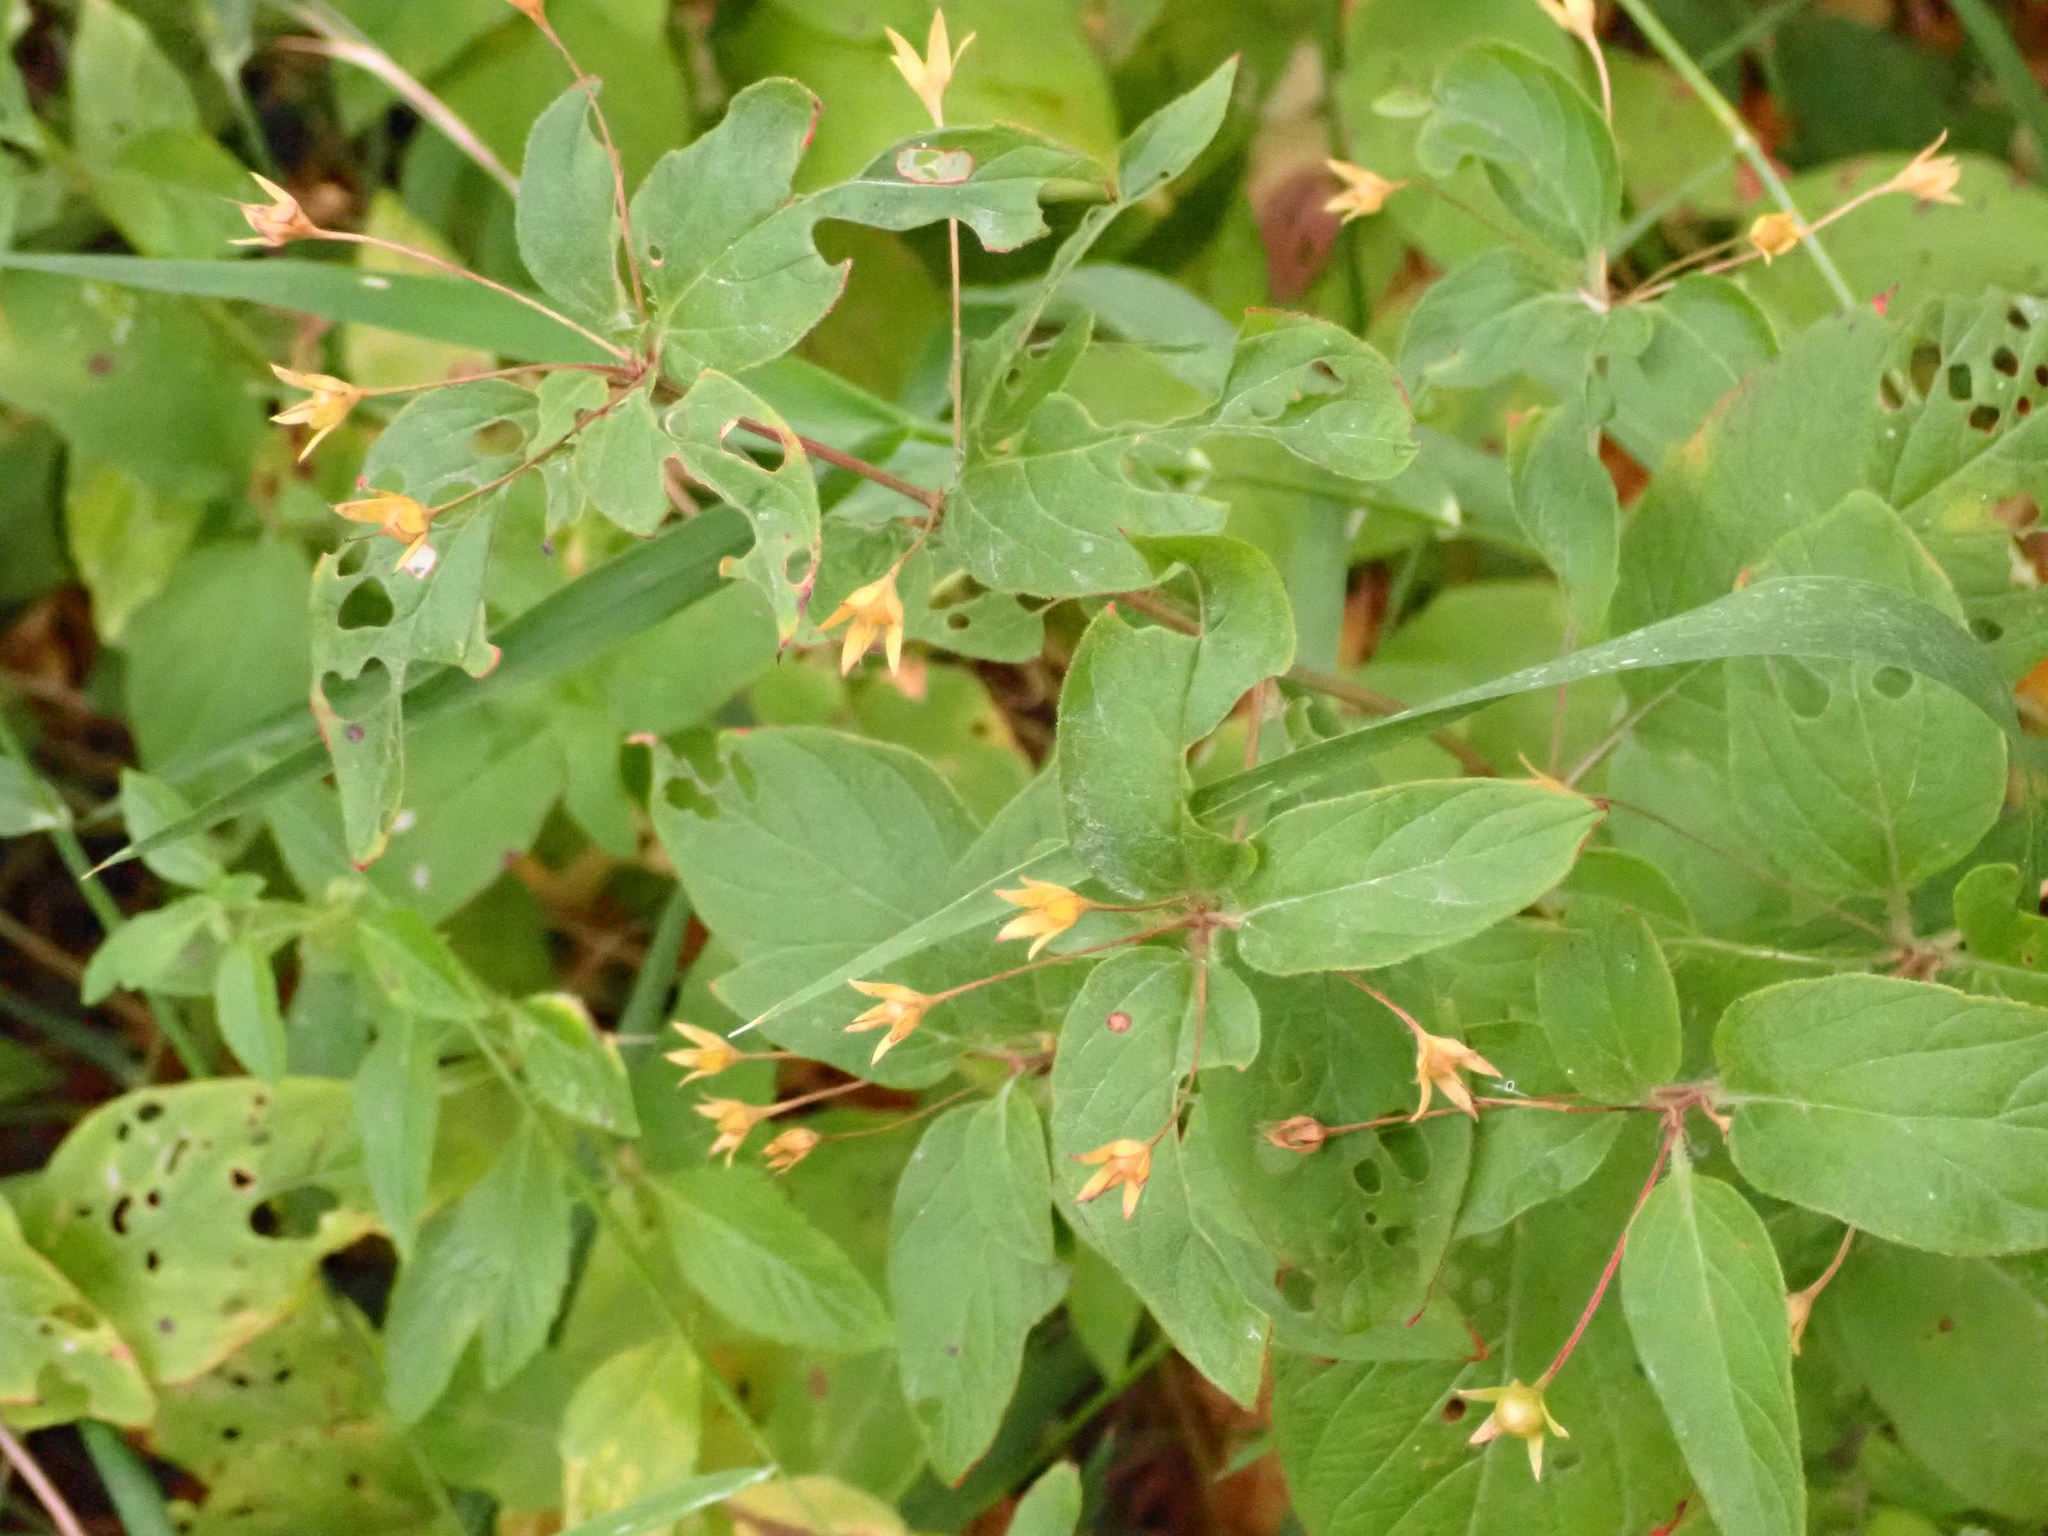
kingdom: Plantae
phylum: Tracheophyta
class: Magnoliopsida
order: Ericales
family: Primulaceae
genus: Lysimachia
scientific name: Lysimachia ciliata
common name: Fringed loosestrife
